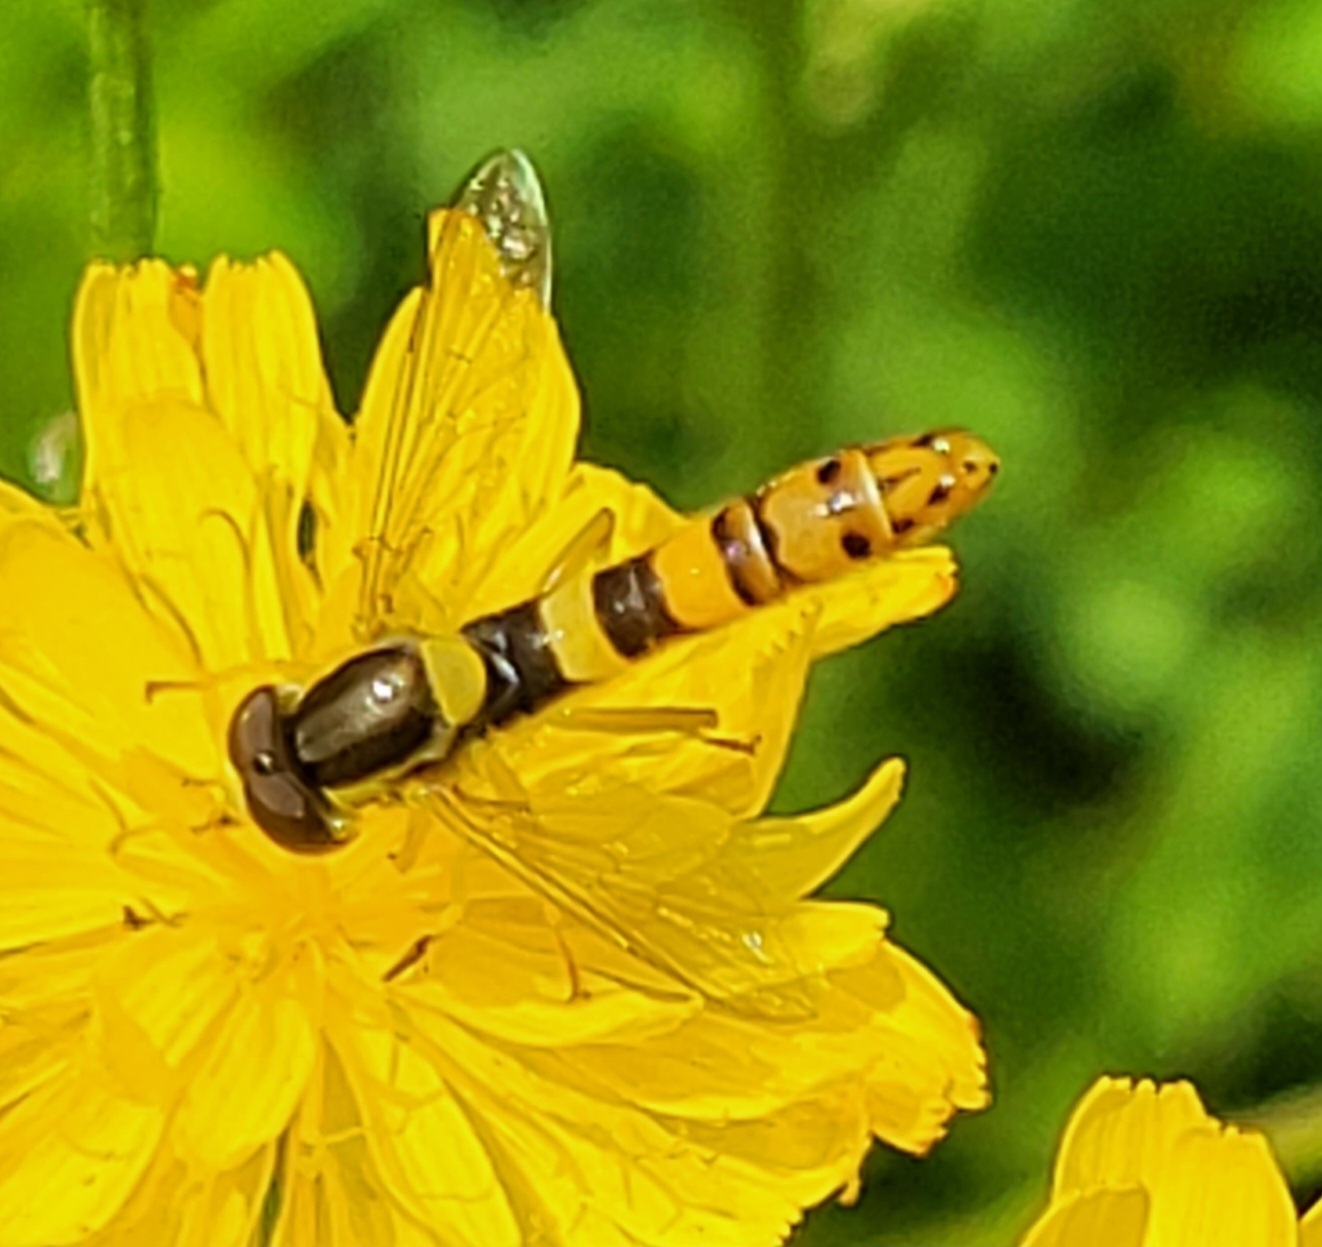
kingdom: Animalia
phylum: Arthropoda
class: Insecta
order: Diptera
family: Syrphidae
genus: Sphaerophoria
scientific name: Sphaerophoria scripta
